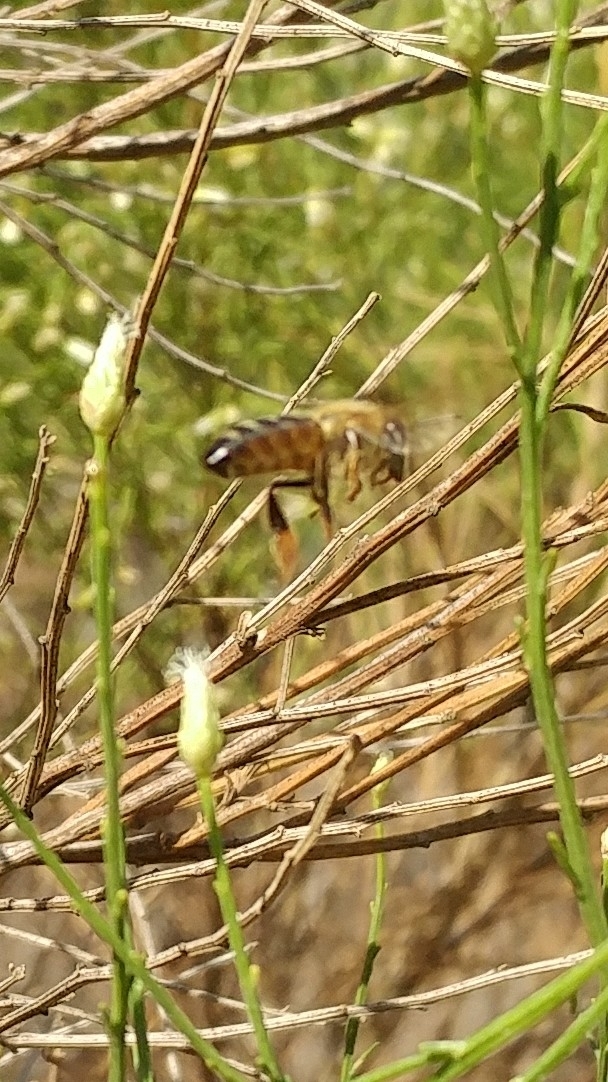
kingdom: Animalia
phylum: Arthropoda
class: Insecta
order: Hymenoptera
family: Apidae
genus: Apis
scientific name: Apis mellifera
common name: Honey bee
